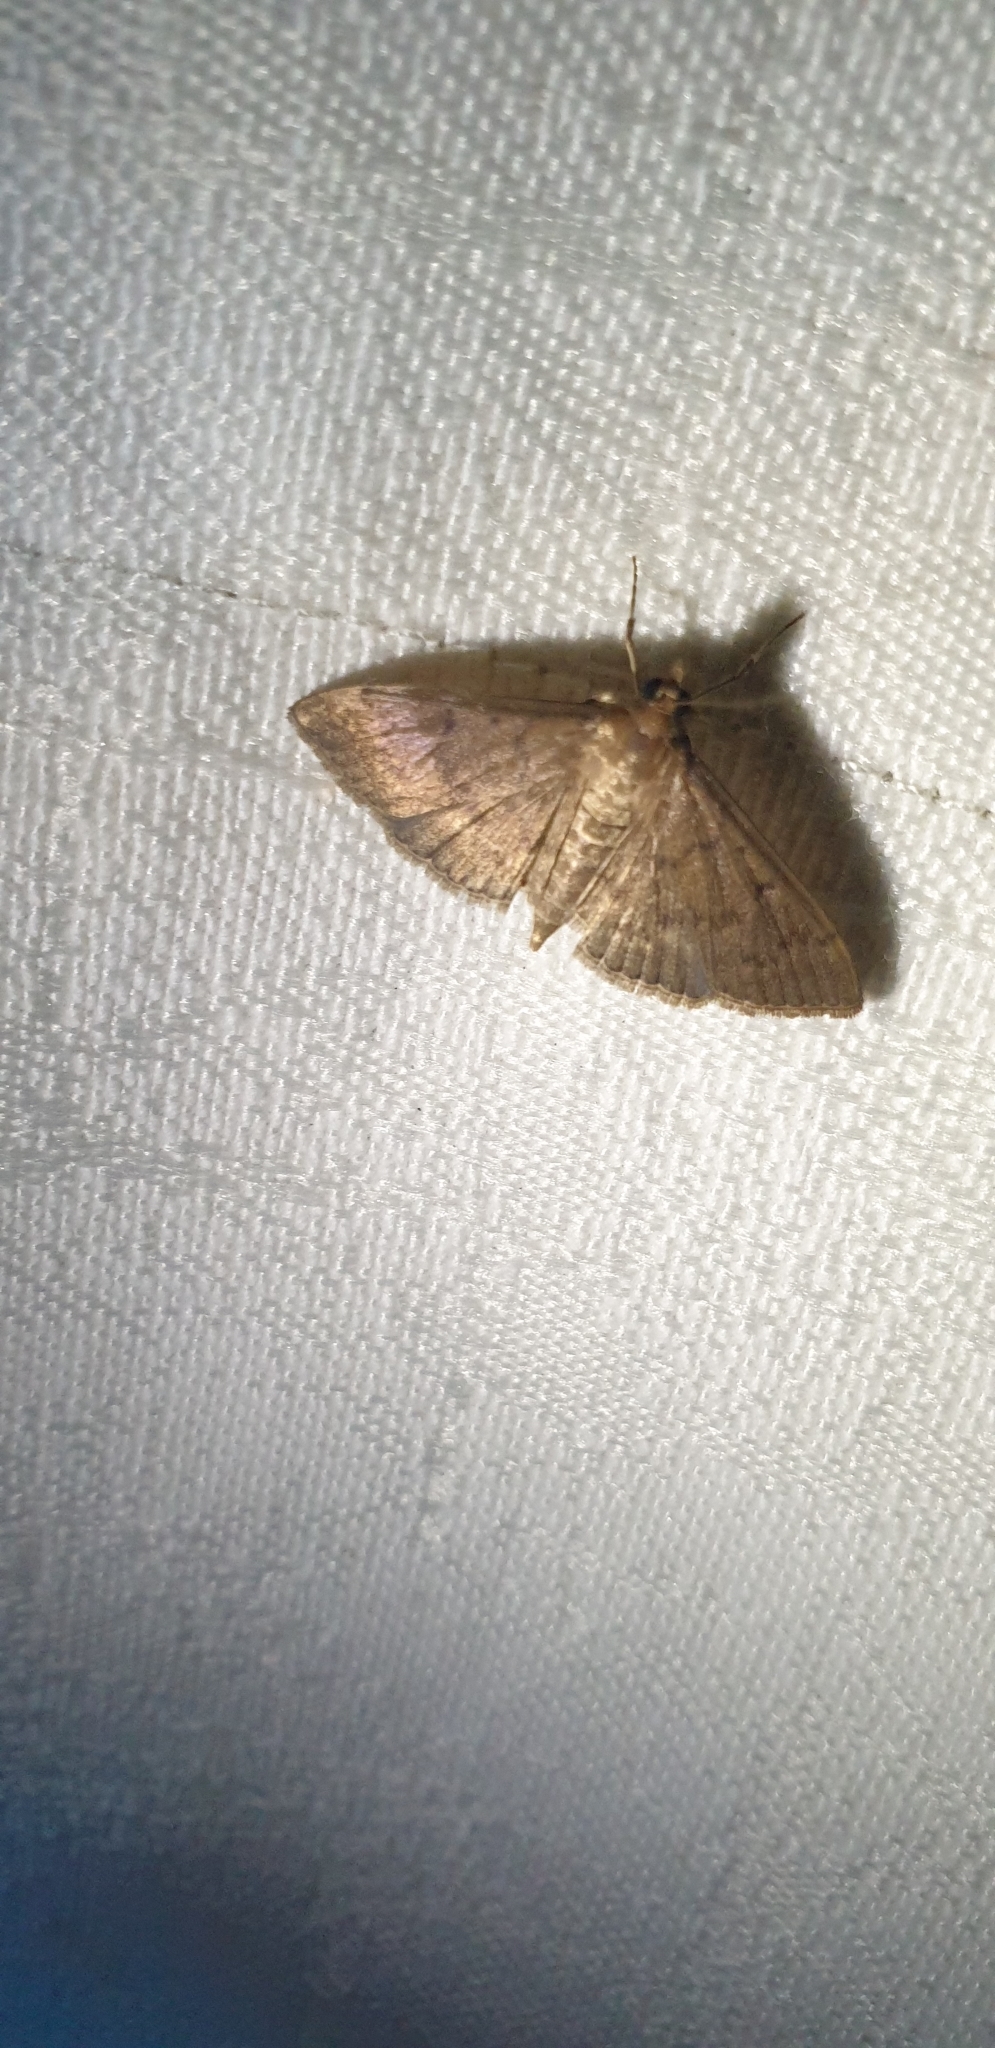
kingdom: Animalia
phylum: Arthropoda
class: Insecta
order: Lepidoptera
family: Crambidae
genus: Herpetogramma
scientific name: Herpetogramma licarsisalis
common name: Grass webworm
